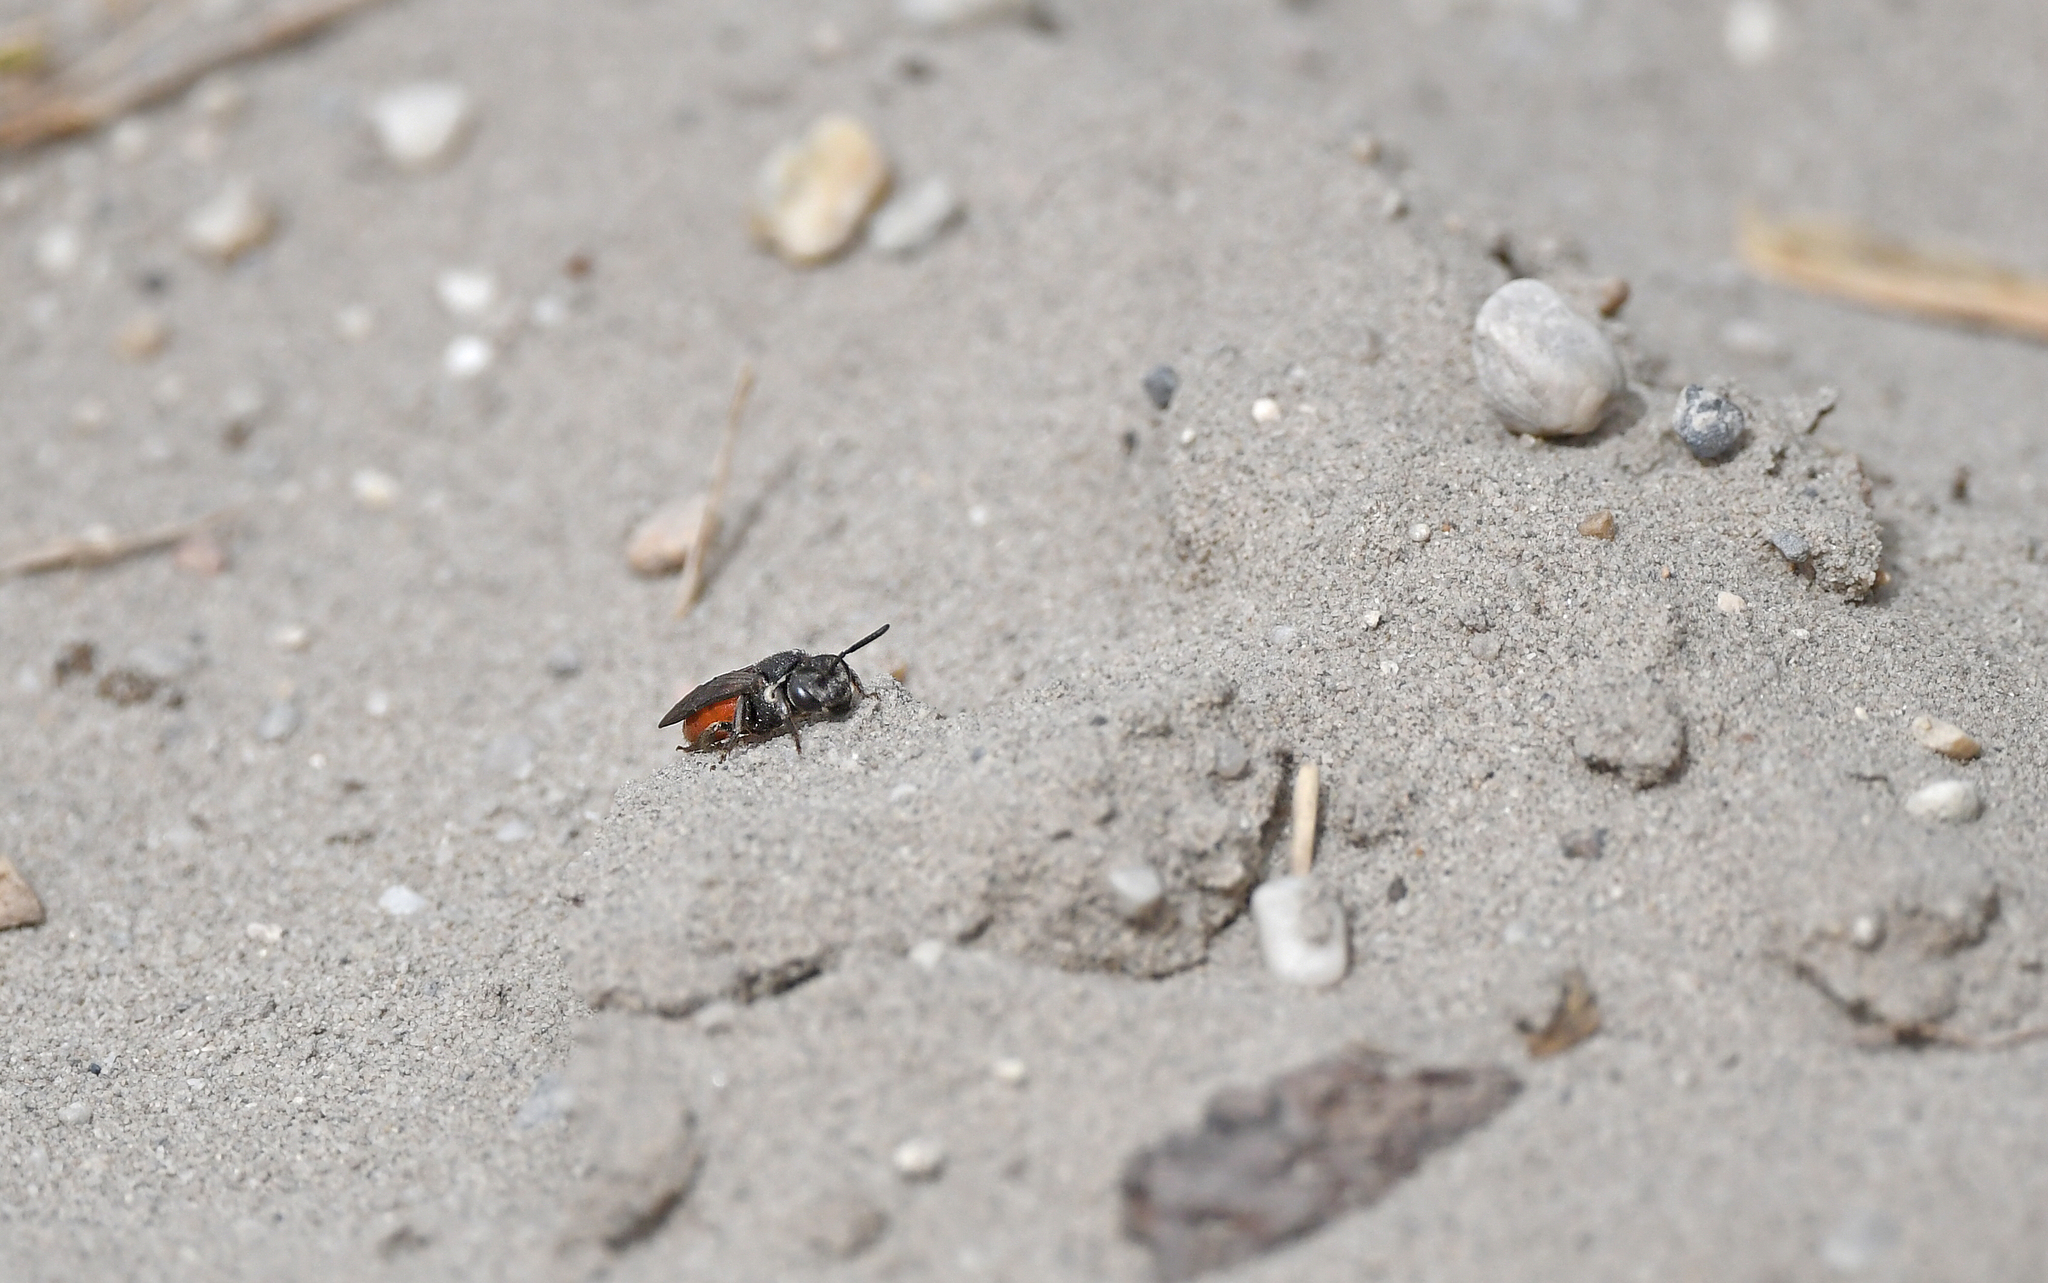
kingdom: Animalia
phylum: Arthropoda
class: Insecta
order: Hymenoptera
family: Halictidae
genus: Sphecodes
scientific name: Sphecodes albilabris
